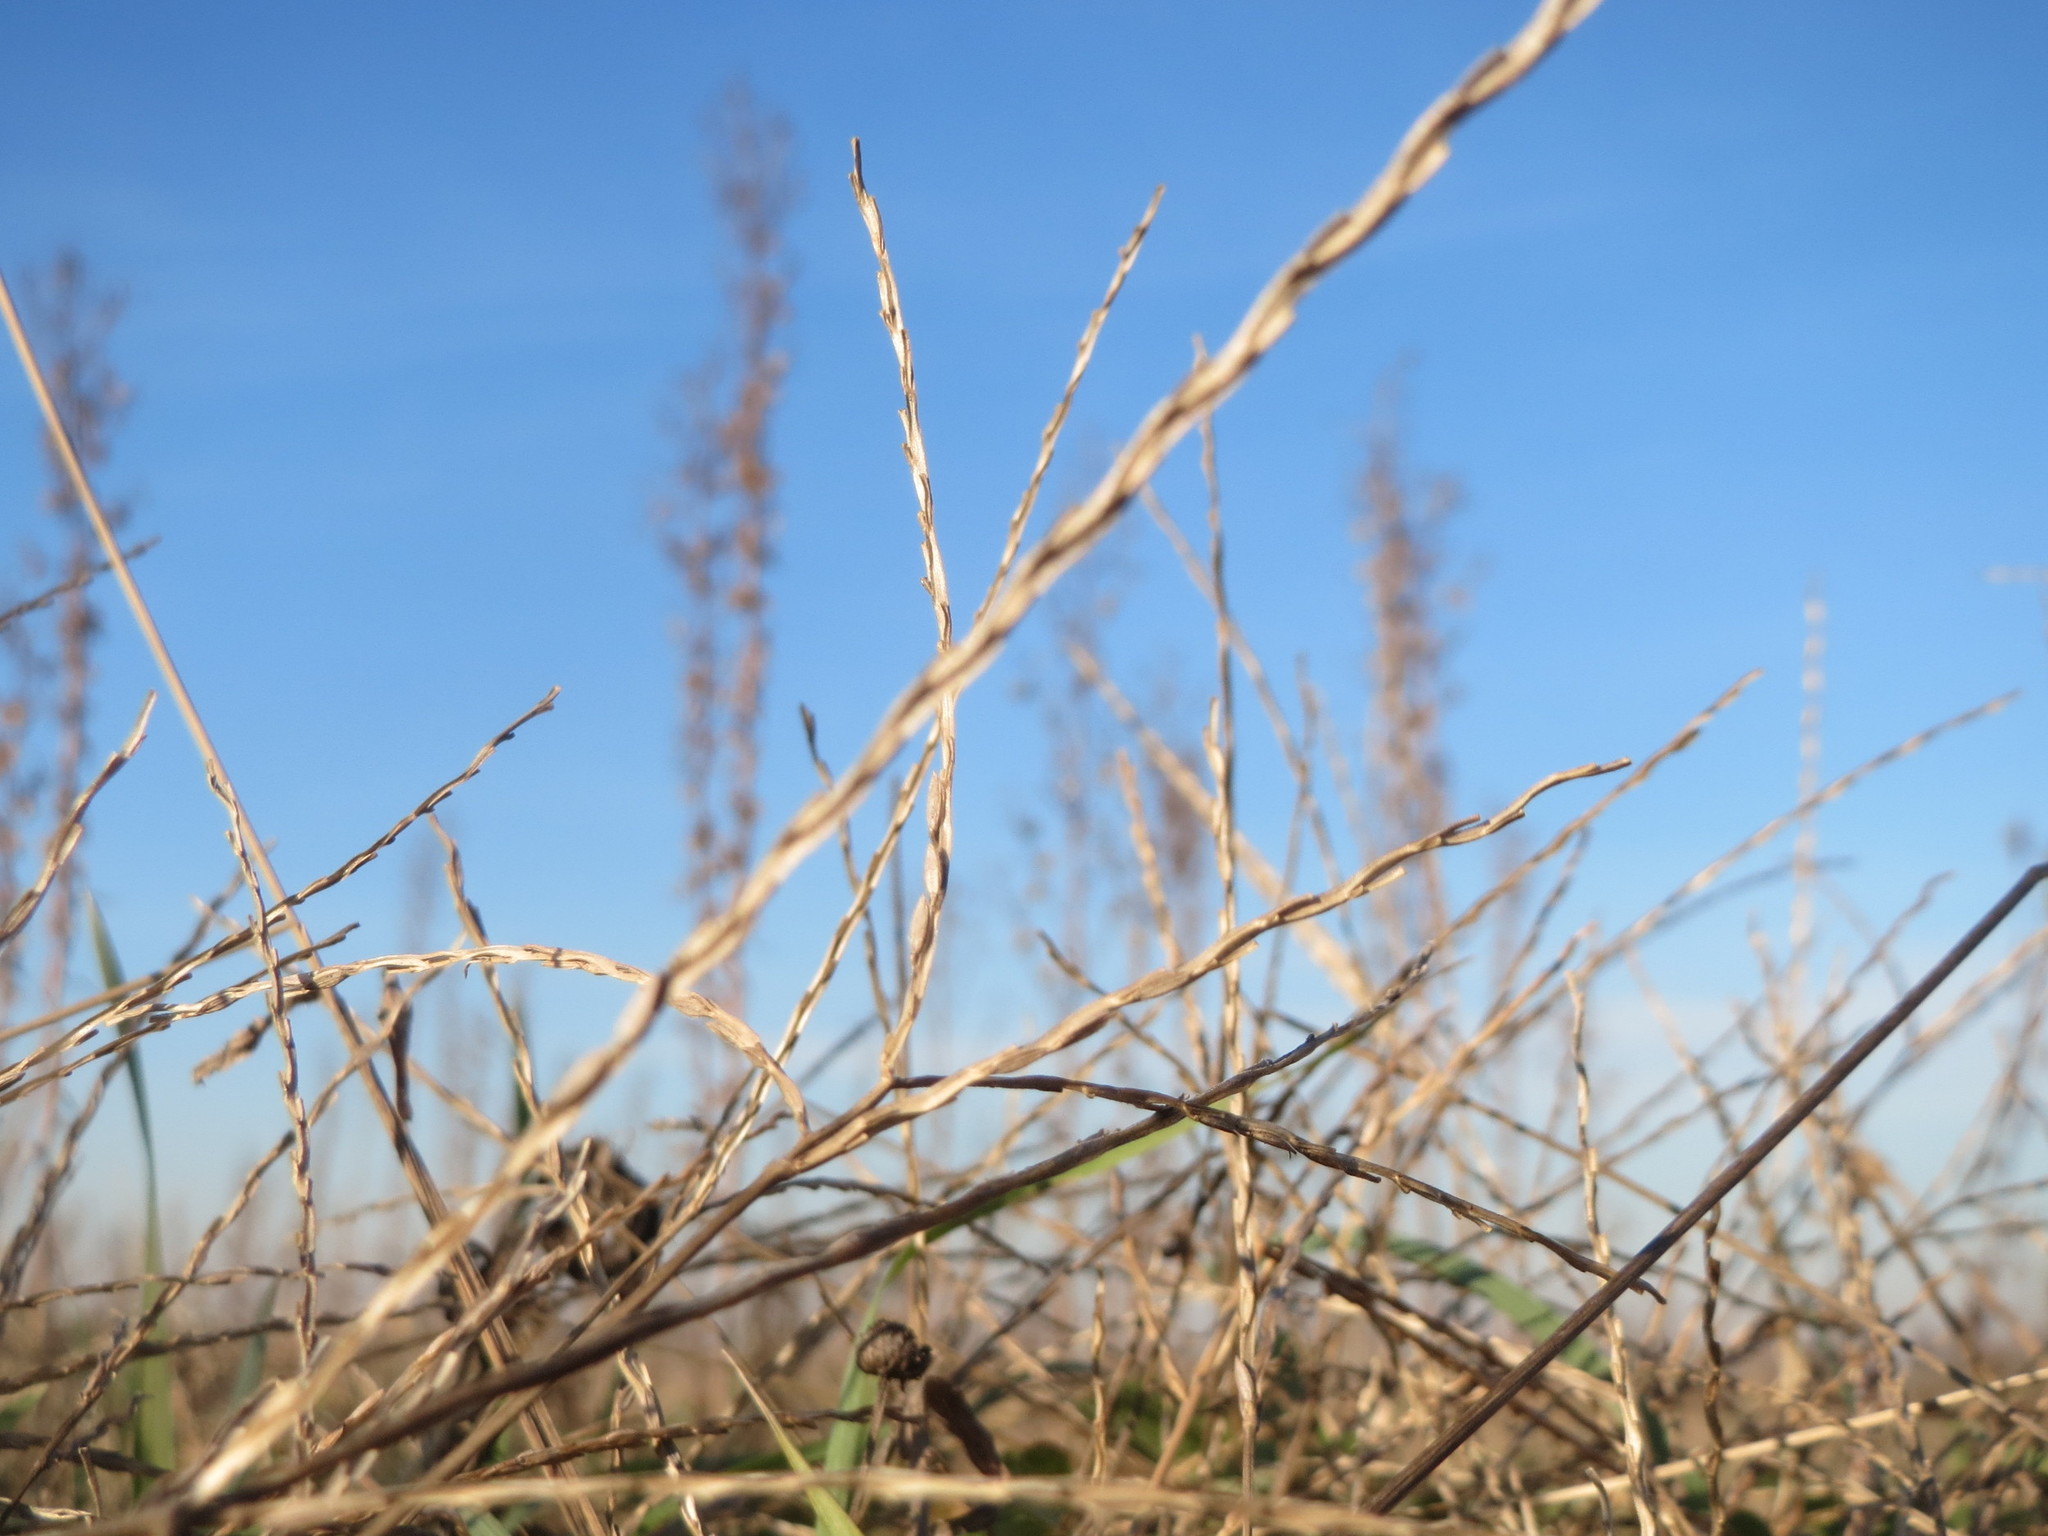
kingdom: Plantae
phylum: Tracheophyta
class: Liliopsida
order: Poales
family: Poaceae
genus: Digitaria
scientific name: Digitaria sanguinalis
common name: Hairy crabgrass
